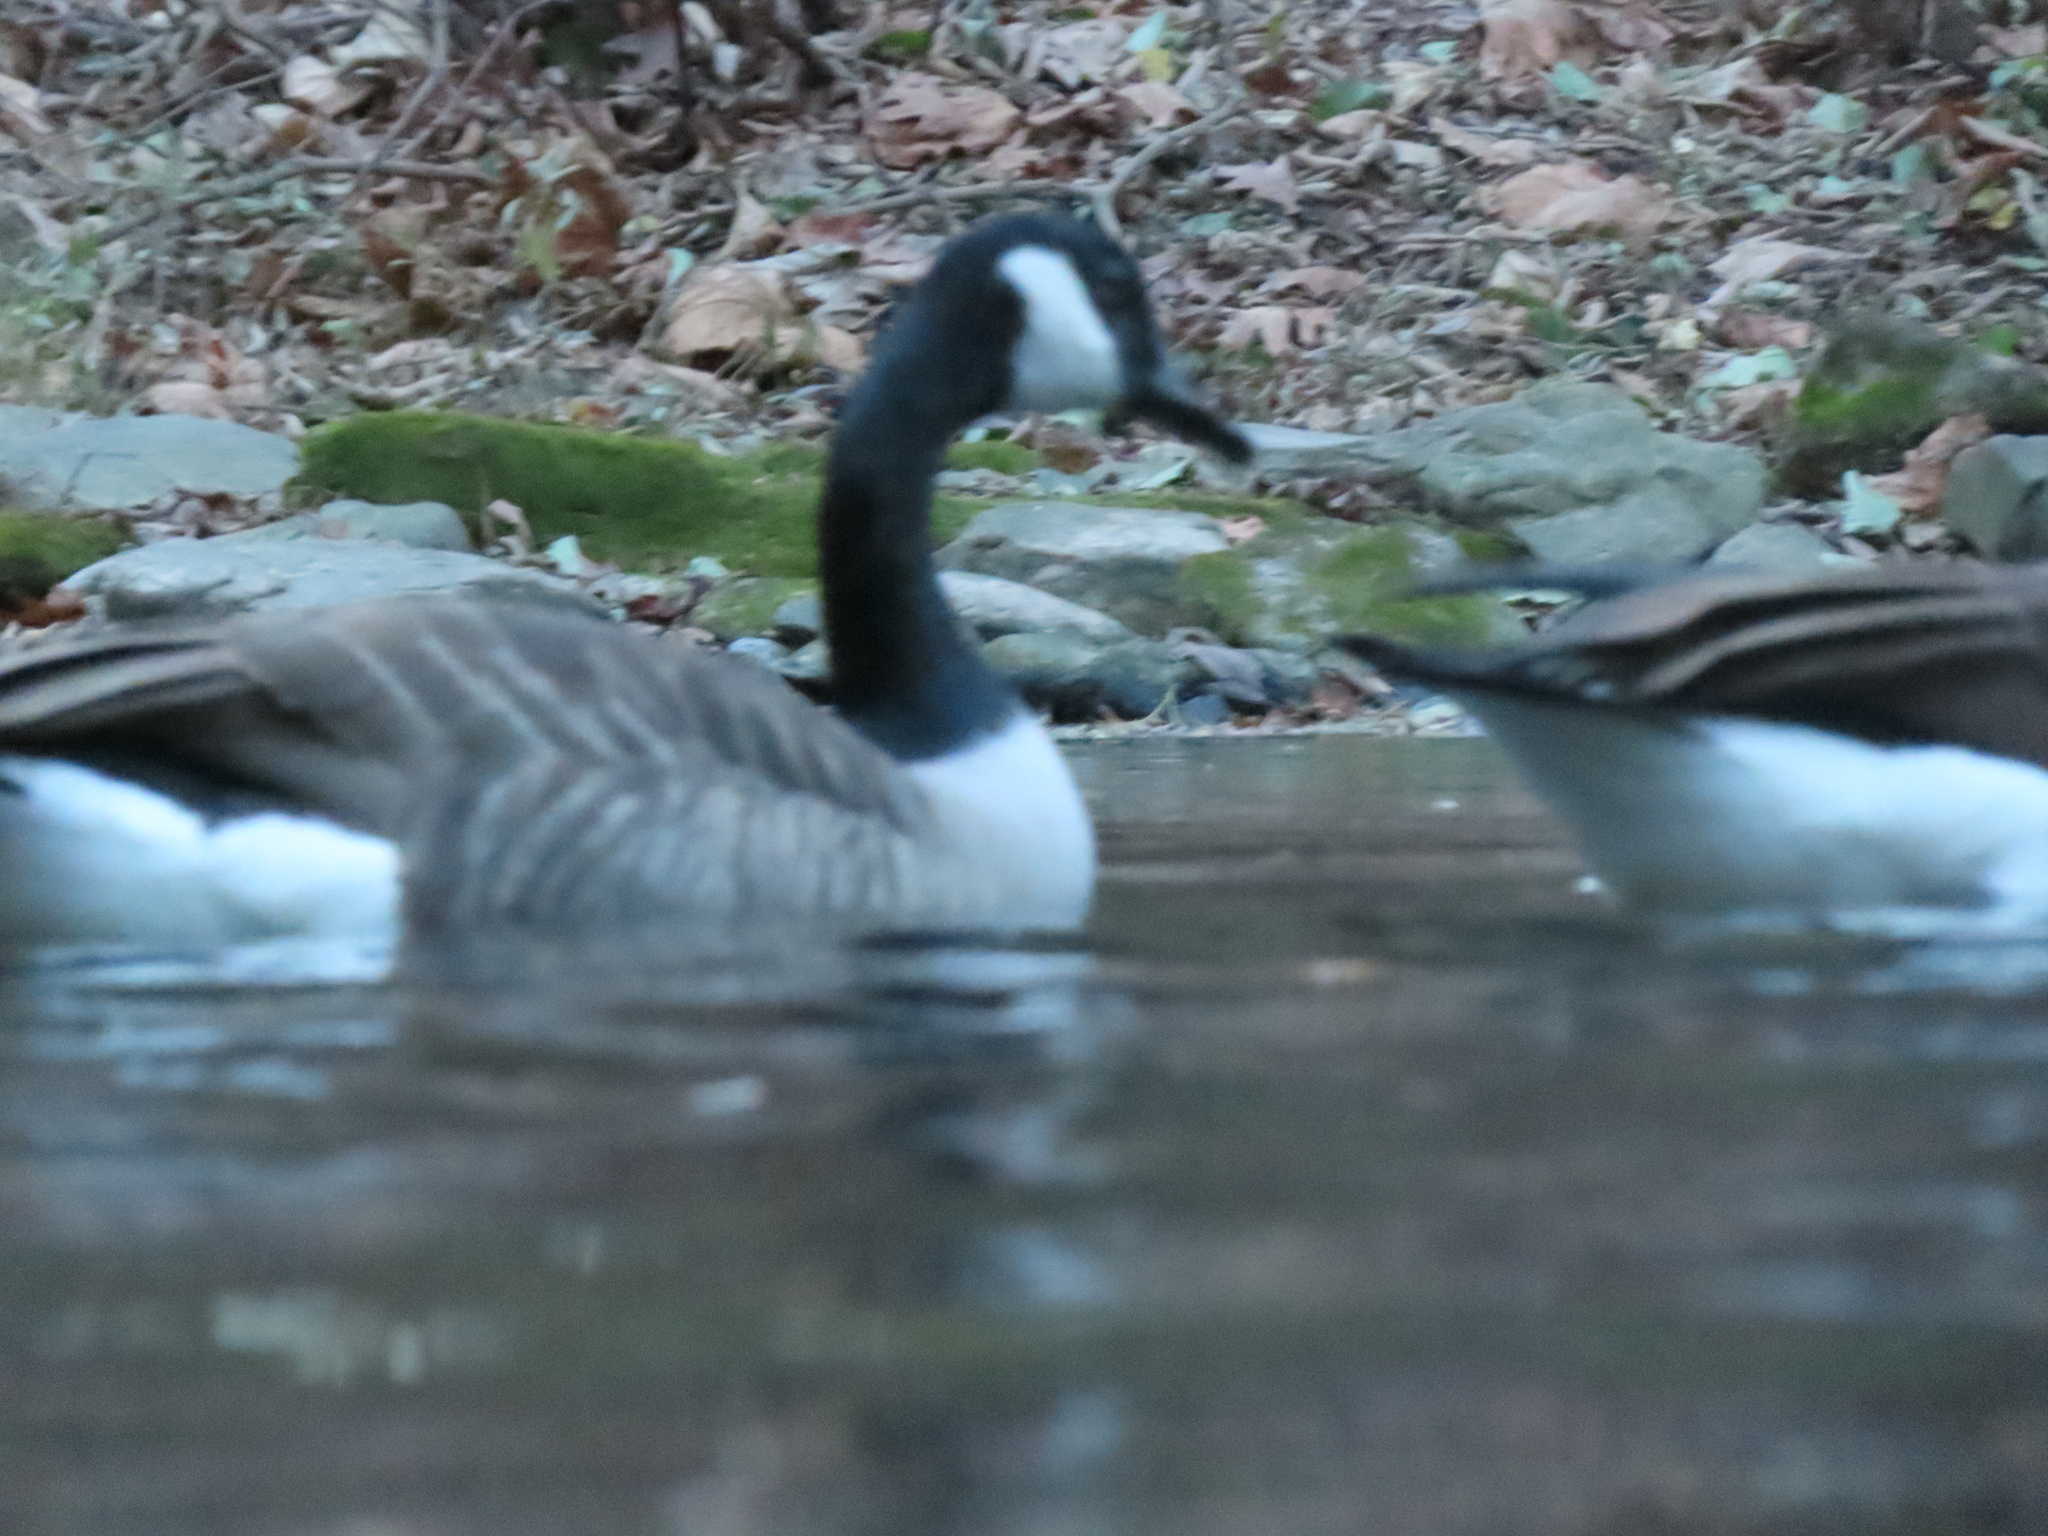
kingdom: Animalia
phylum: Chordata
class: Aves
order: Anseriformes
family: Anatidae
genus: Branta
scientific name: Branta canadensis
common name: Canada goose
